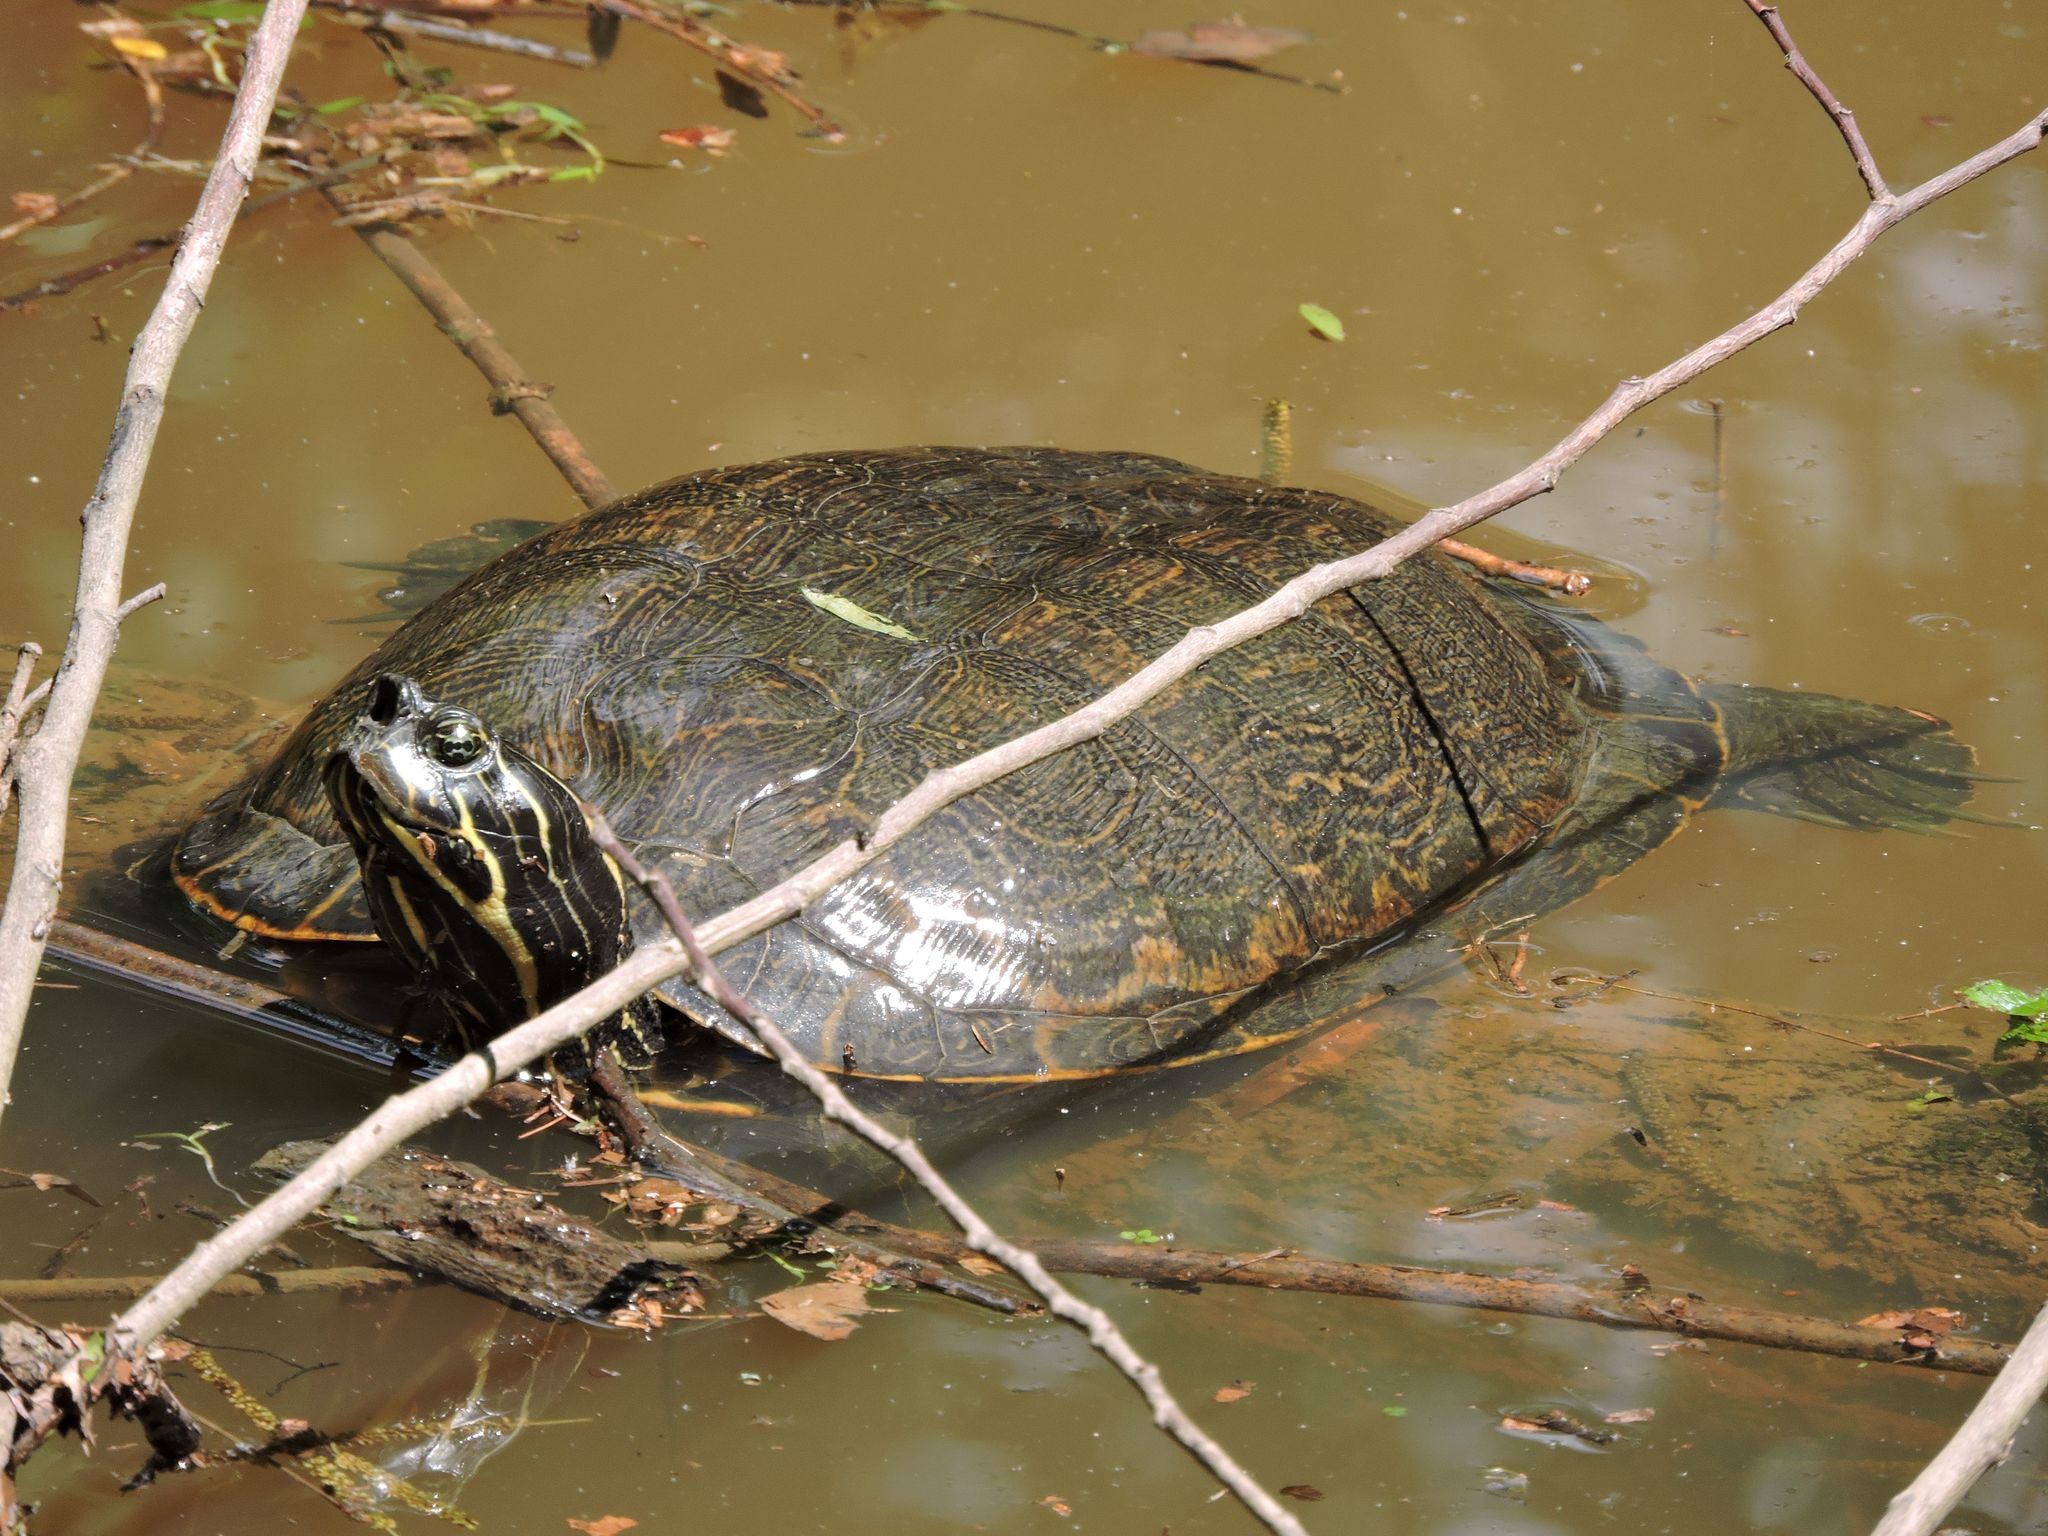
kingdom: Animalia
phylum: Chordata
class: Testudines
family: Emydidae
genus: Pseudemys
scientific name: Pseudemys concinna
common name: Eastern river cooter
